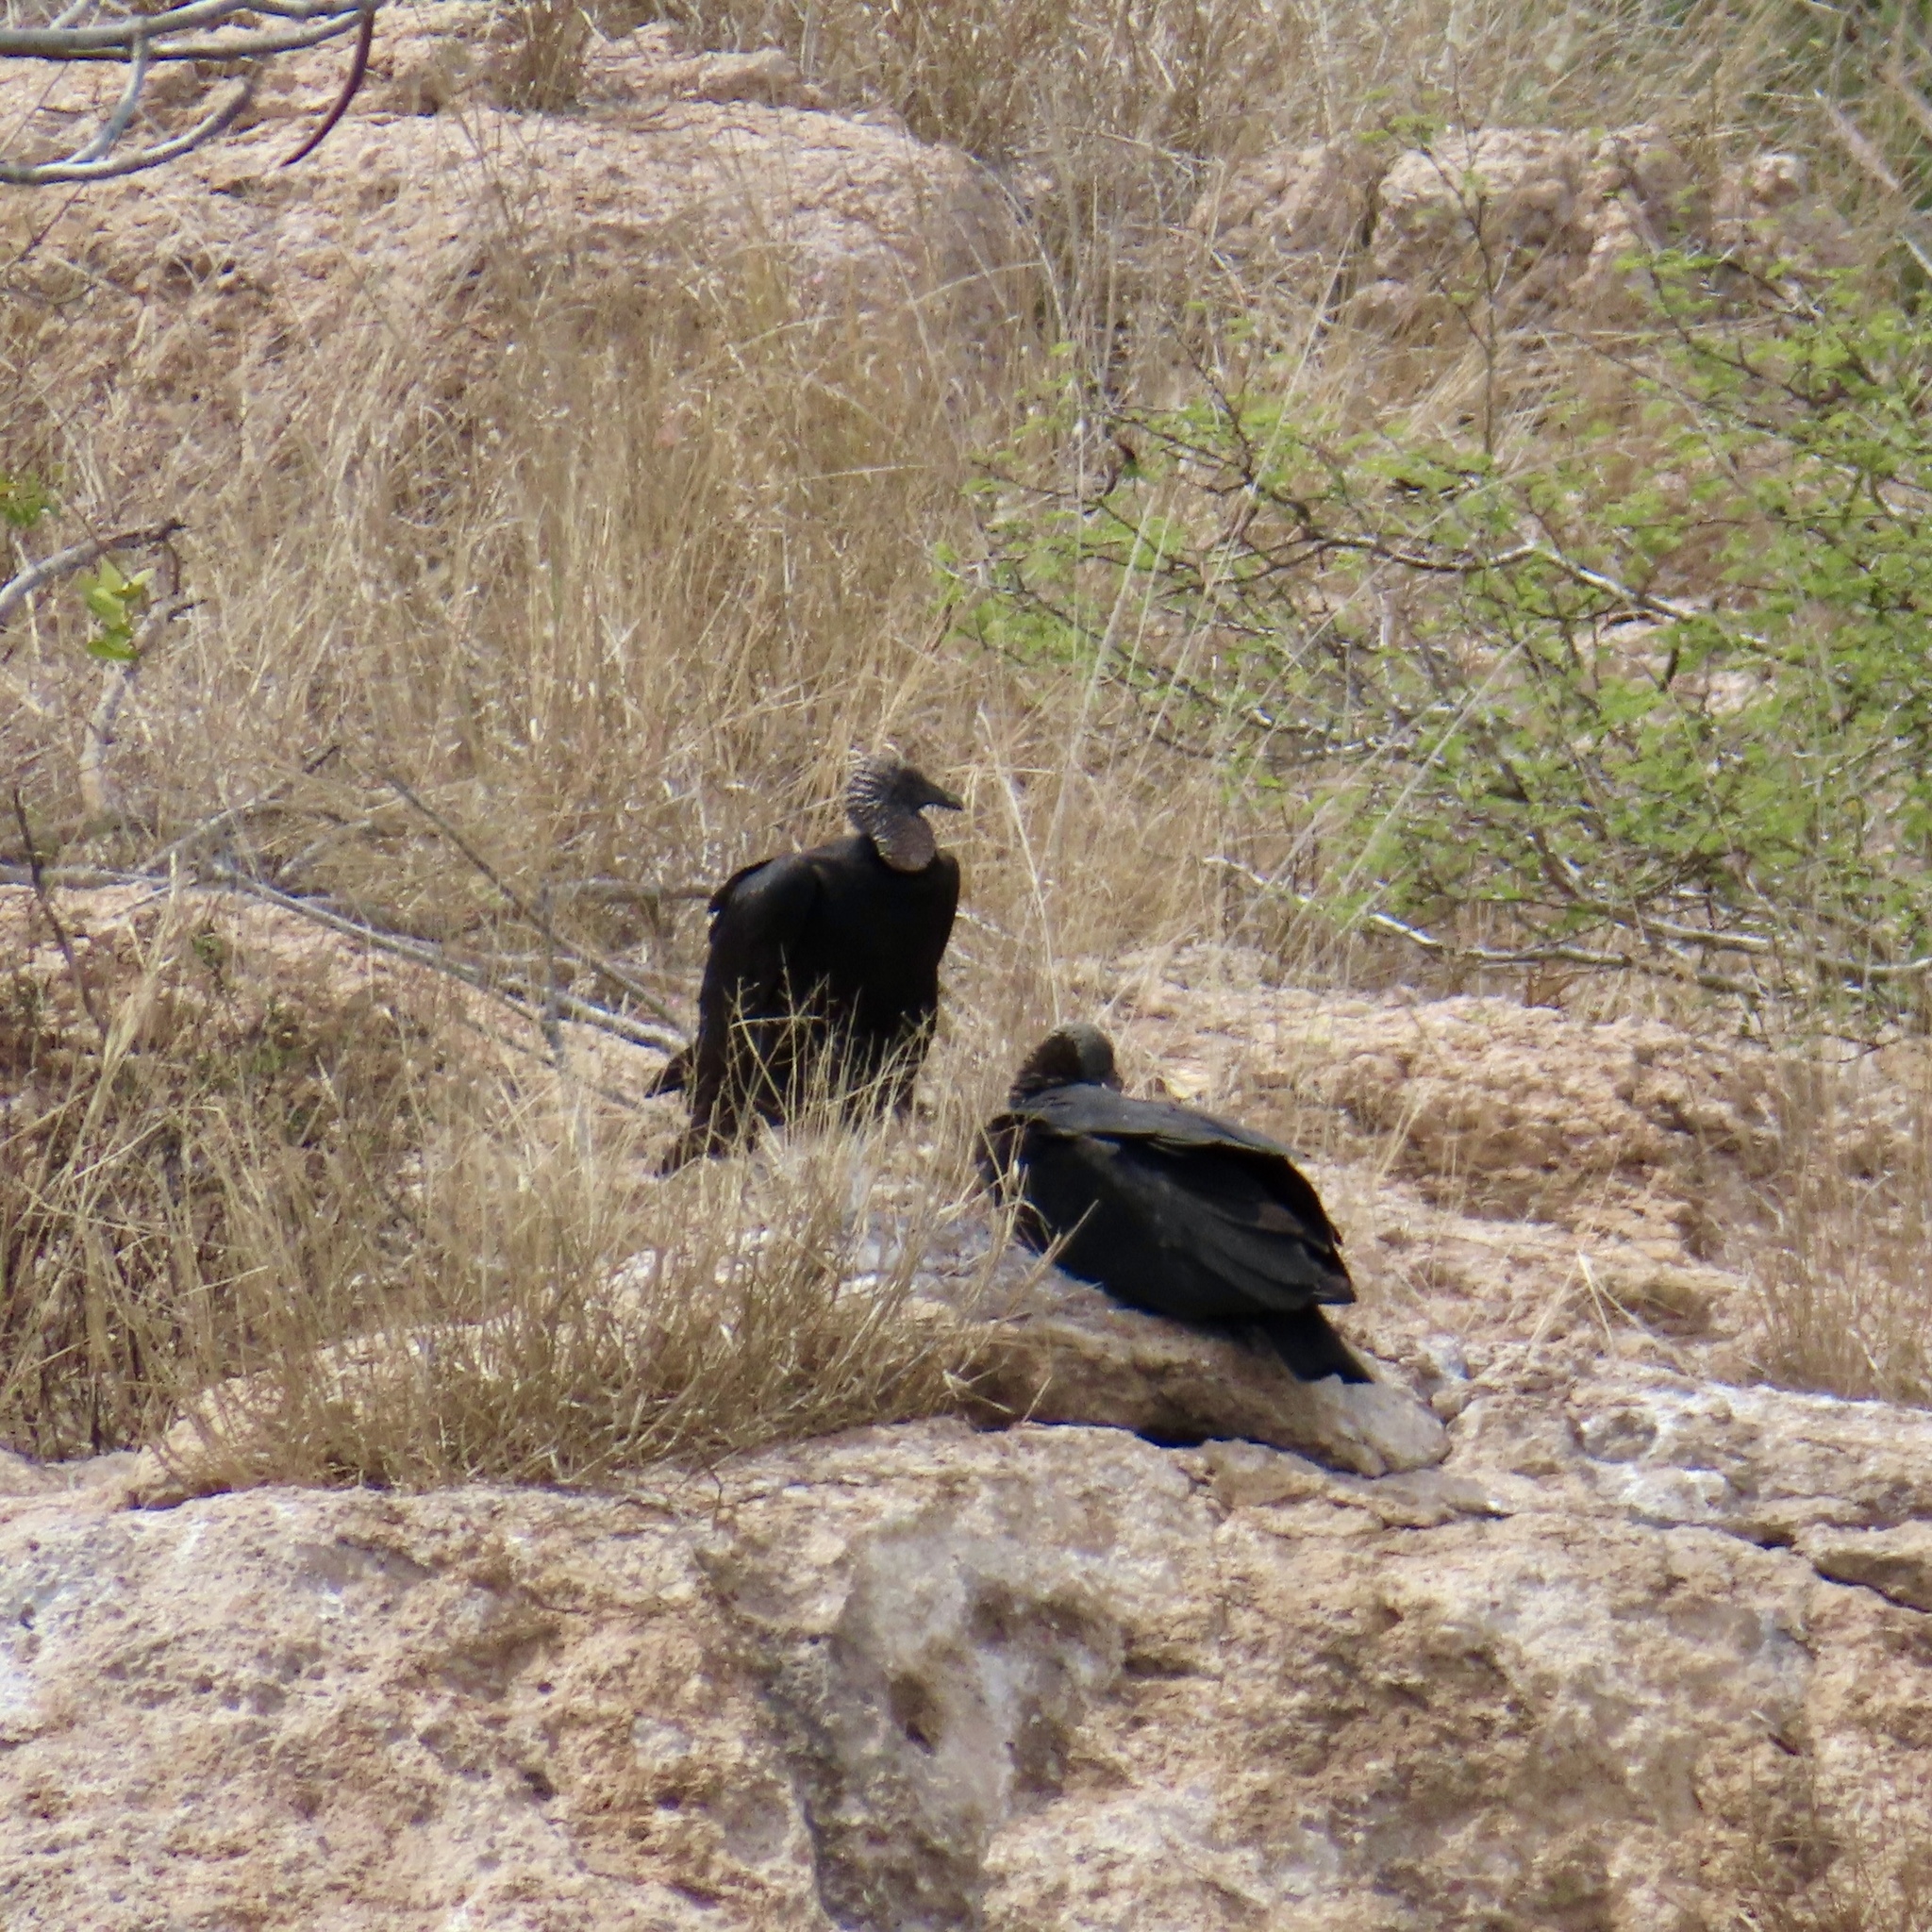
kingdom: Animalia
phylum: Chordata
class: Aves
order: Accipitriformes
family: Cathartidae
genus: Coragyps
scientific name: Coragyps atratus
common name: Black vulture
